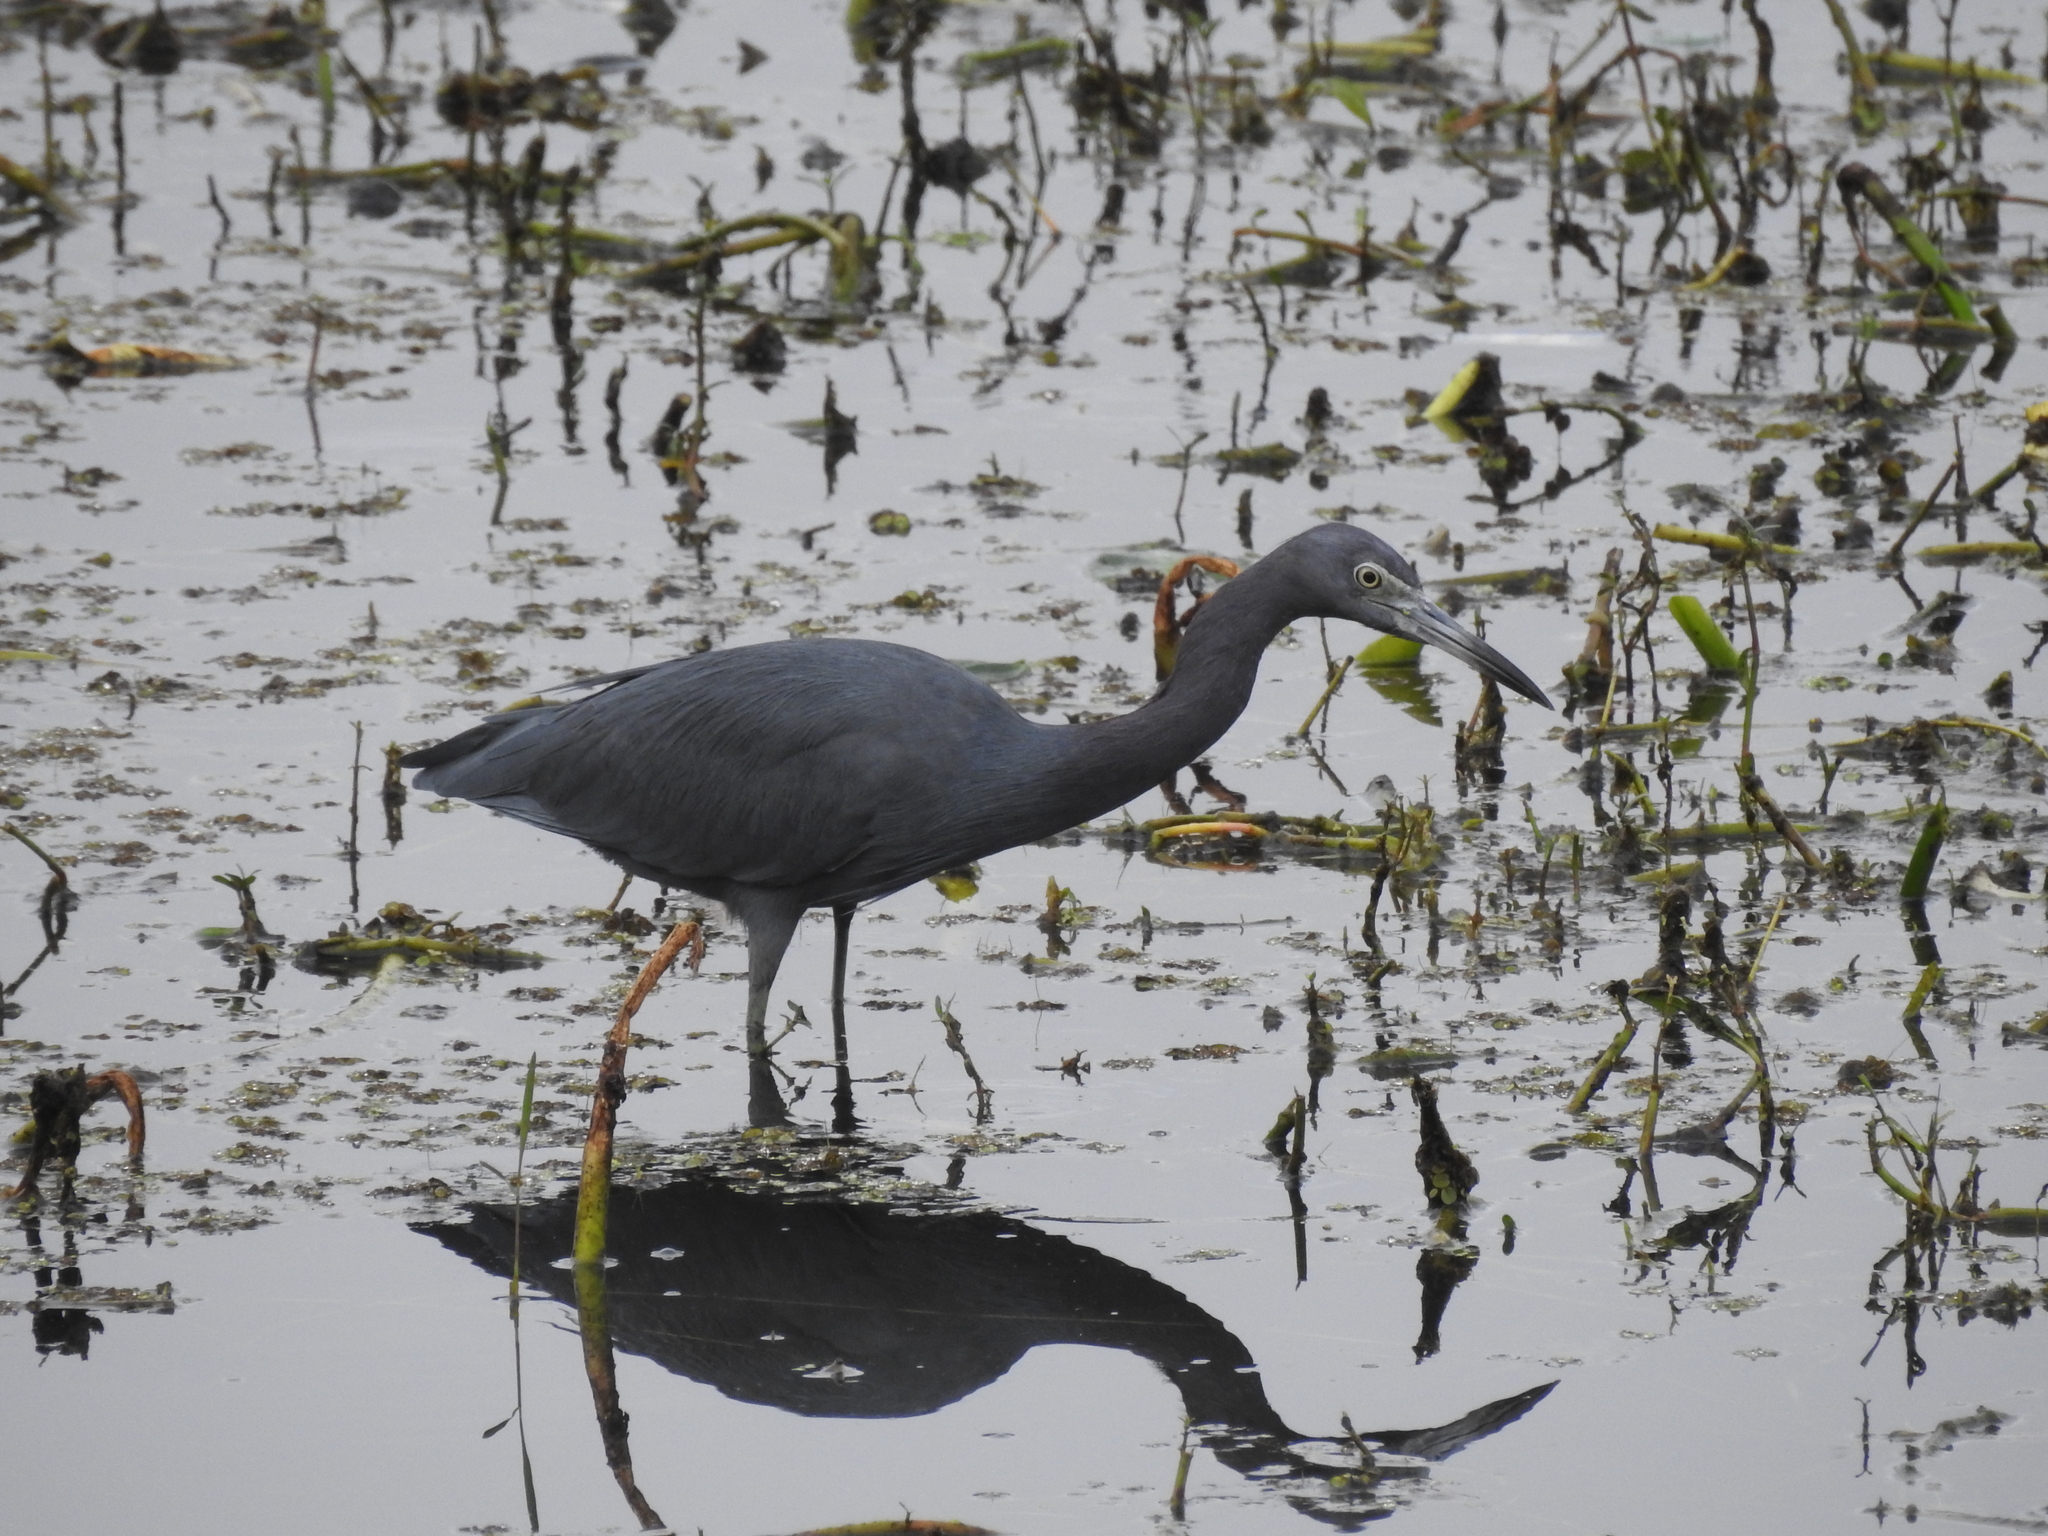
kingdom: Animalia
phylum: Chordata
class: Aves
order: Pelecaniformes
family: Ardeidae
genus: Egretta
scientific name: Egretta caerulea
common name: Little blue heron
